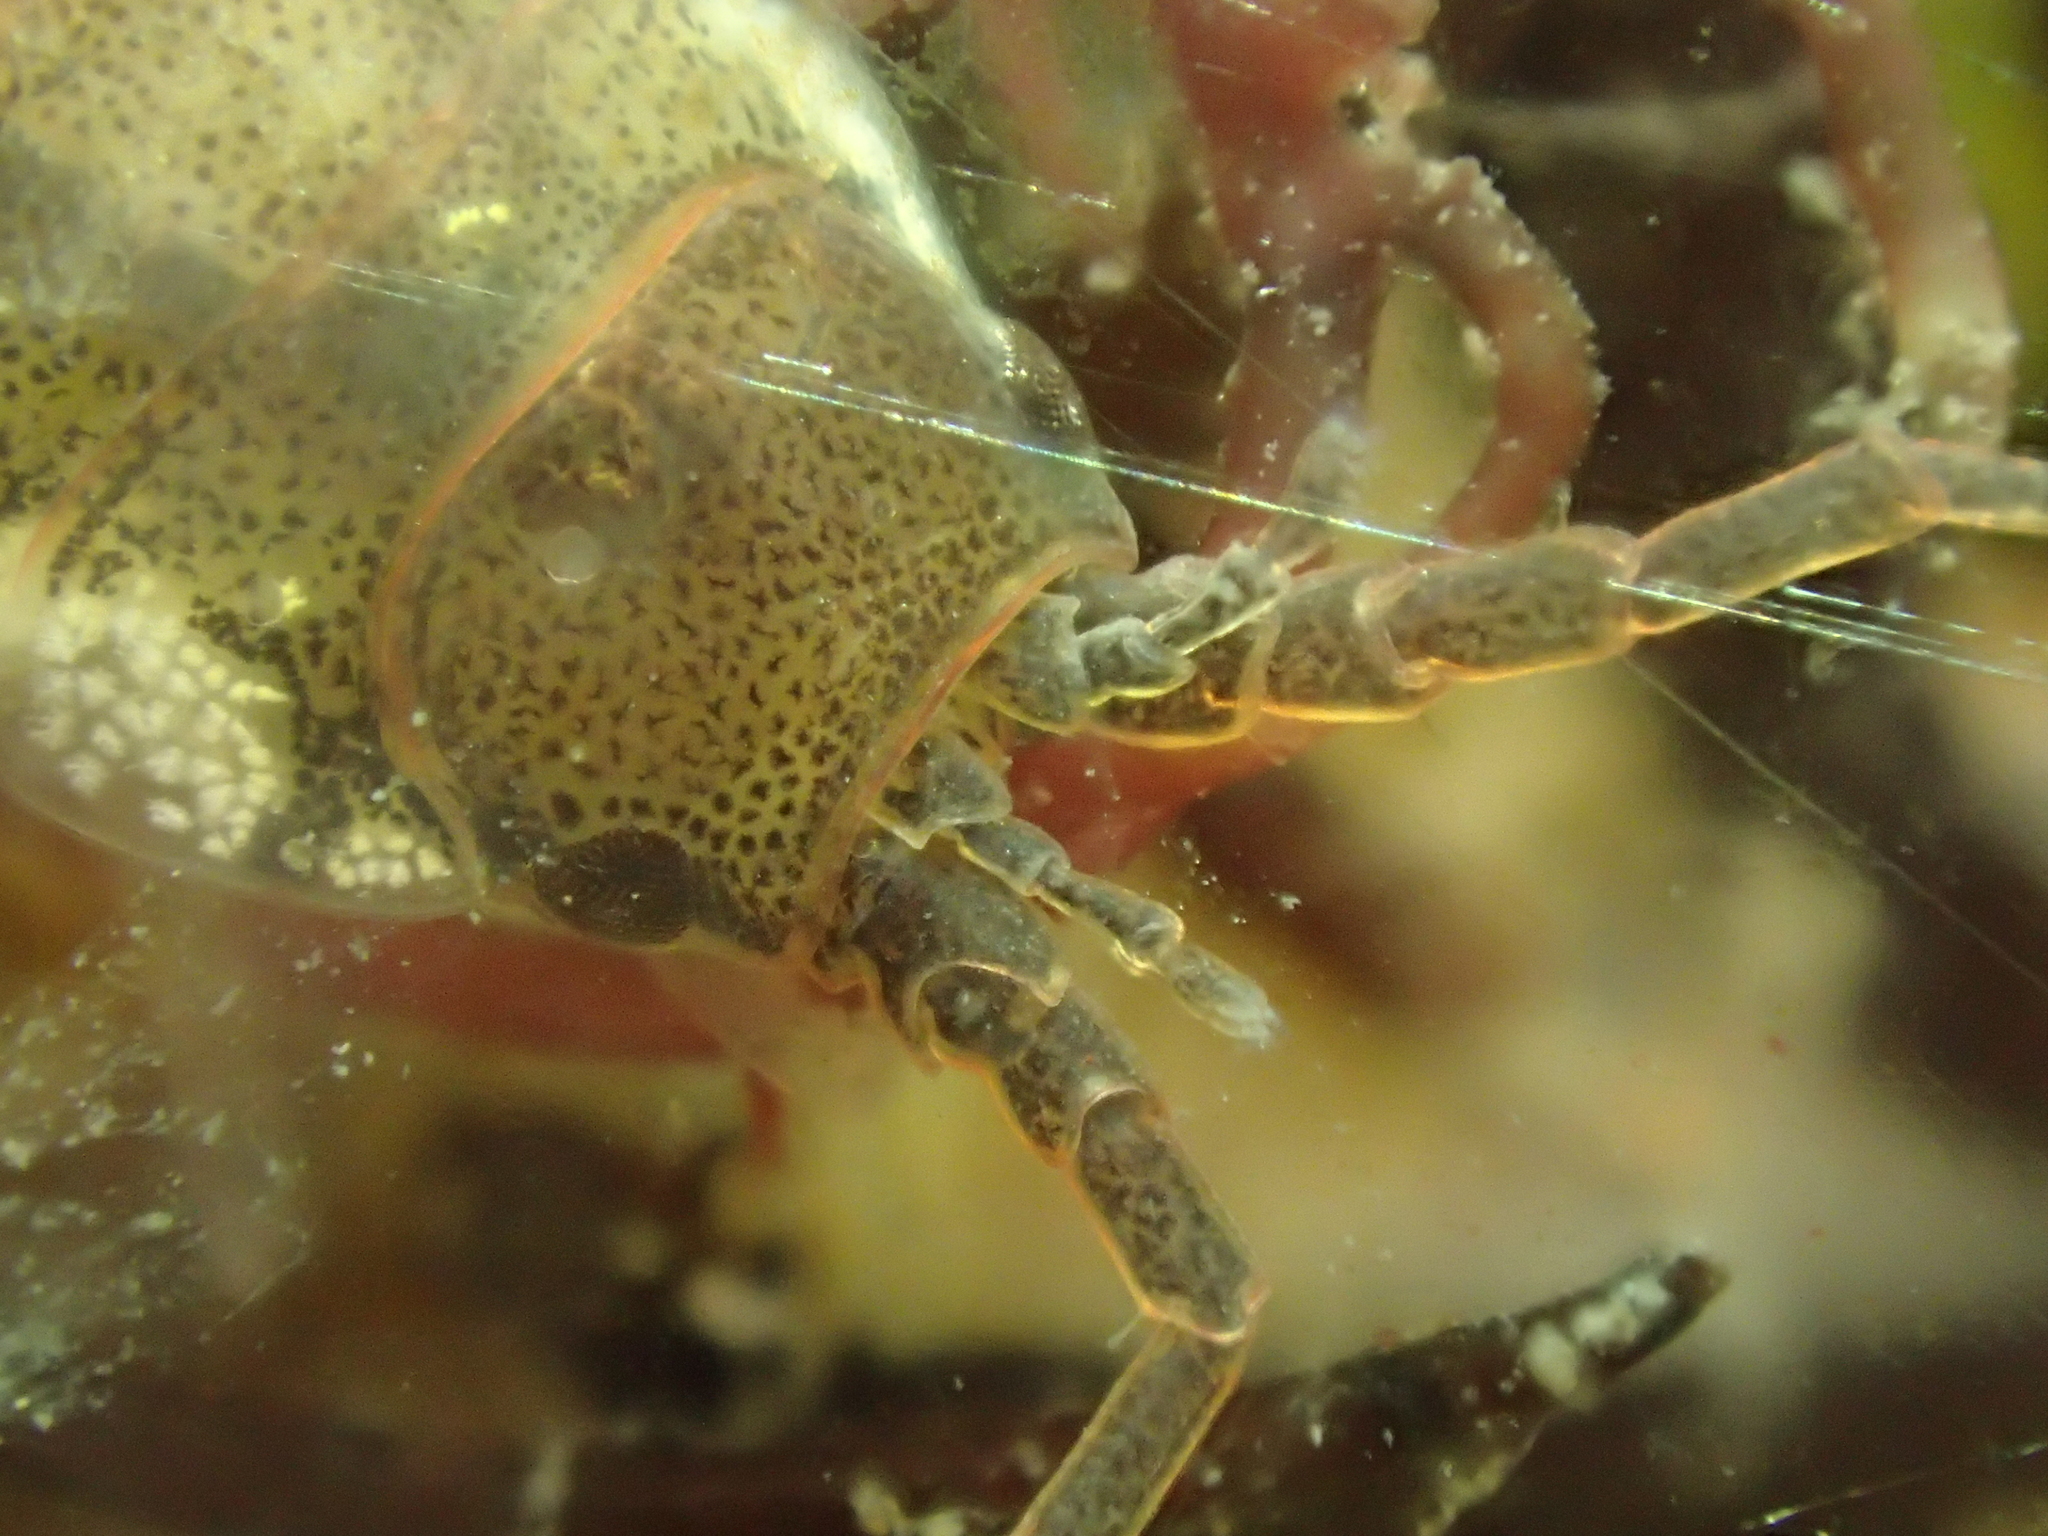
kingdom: Animalia
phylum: Arthropoda
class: Malacostraca
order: Isopoda
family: Idoteidae
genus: Idotea
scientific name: Idotea balthica
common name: Baltic isopod
